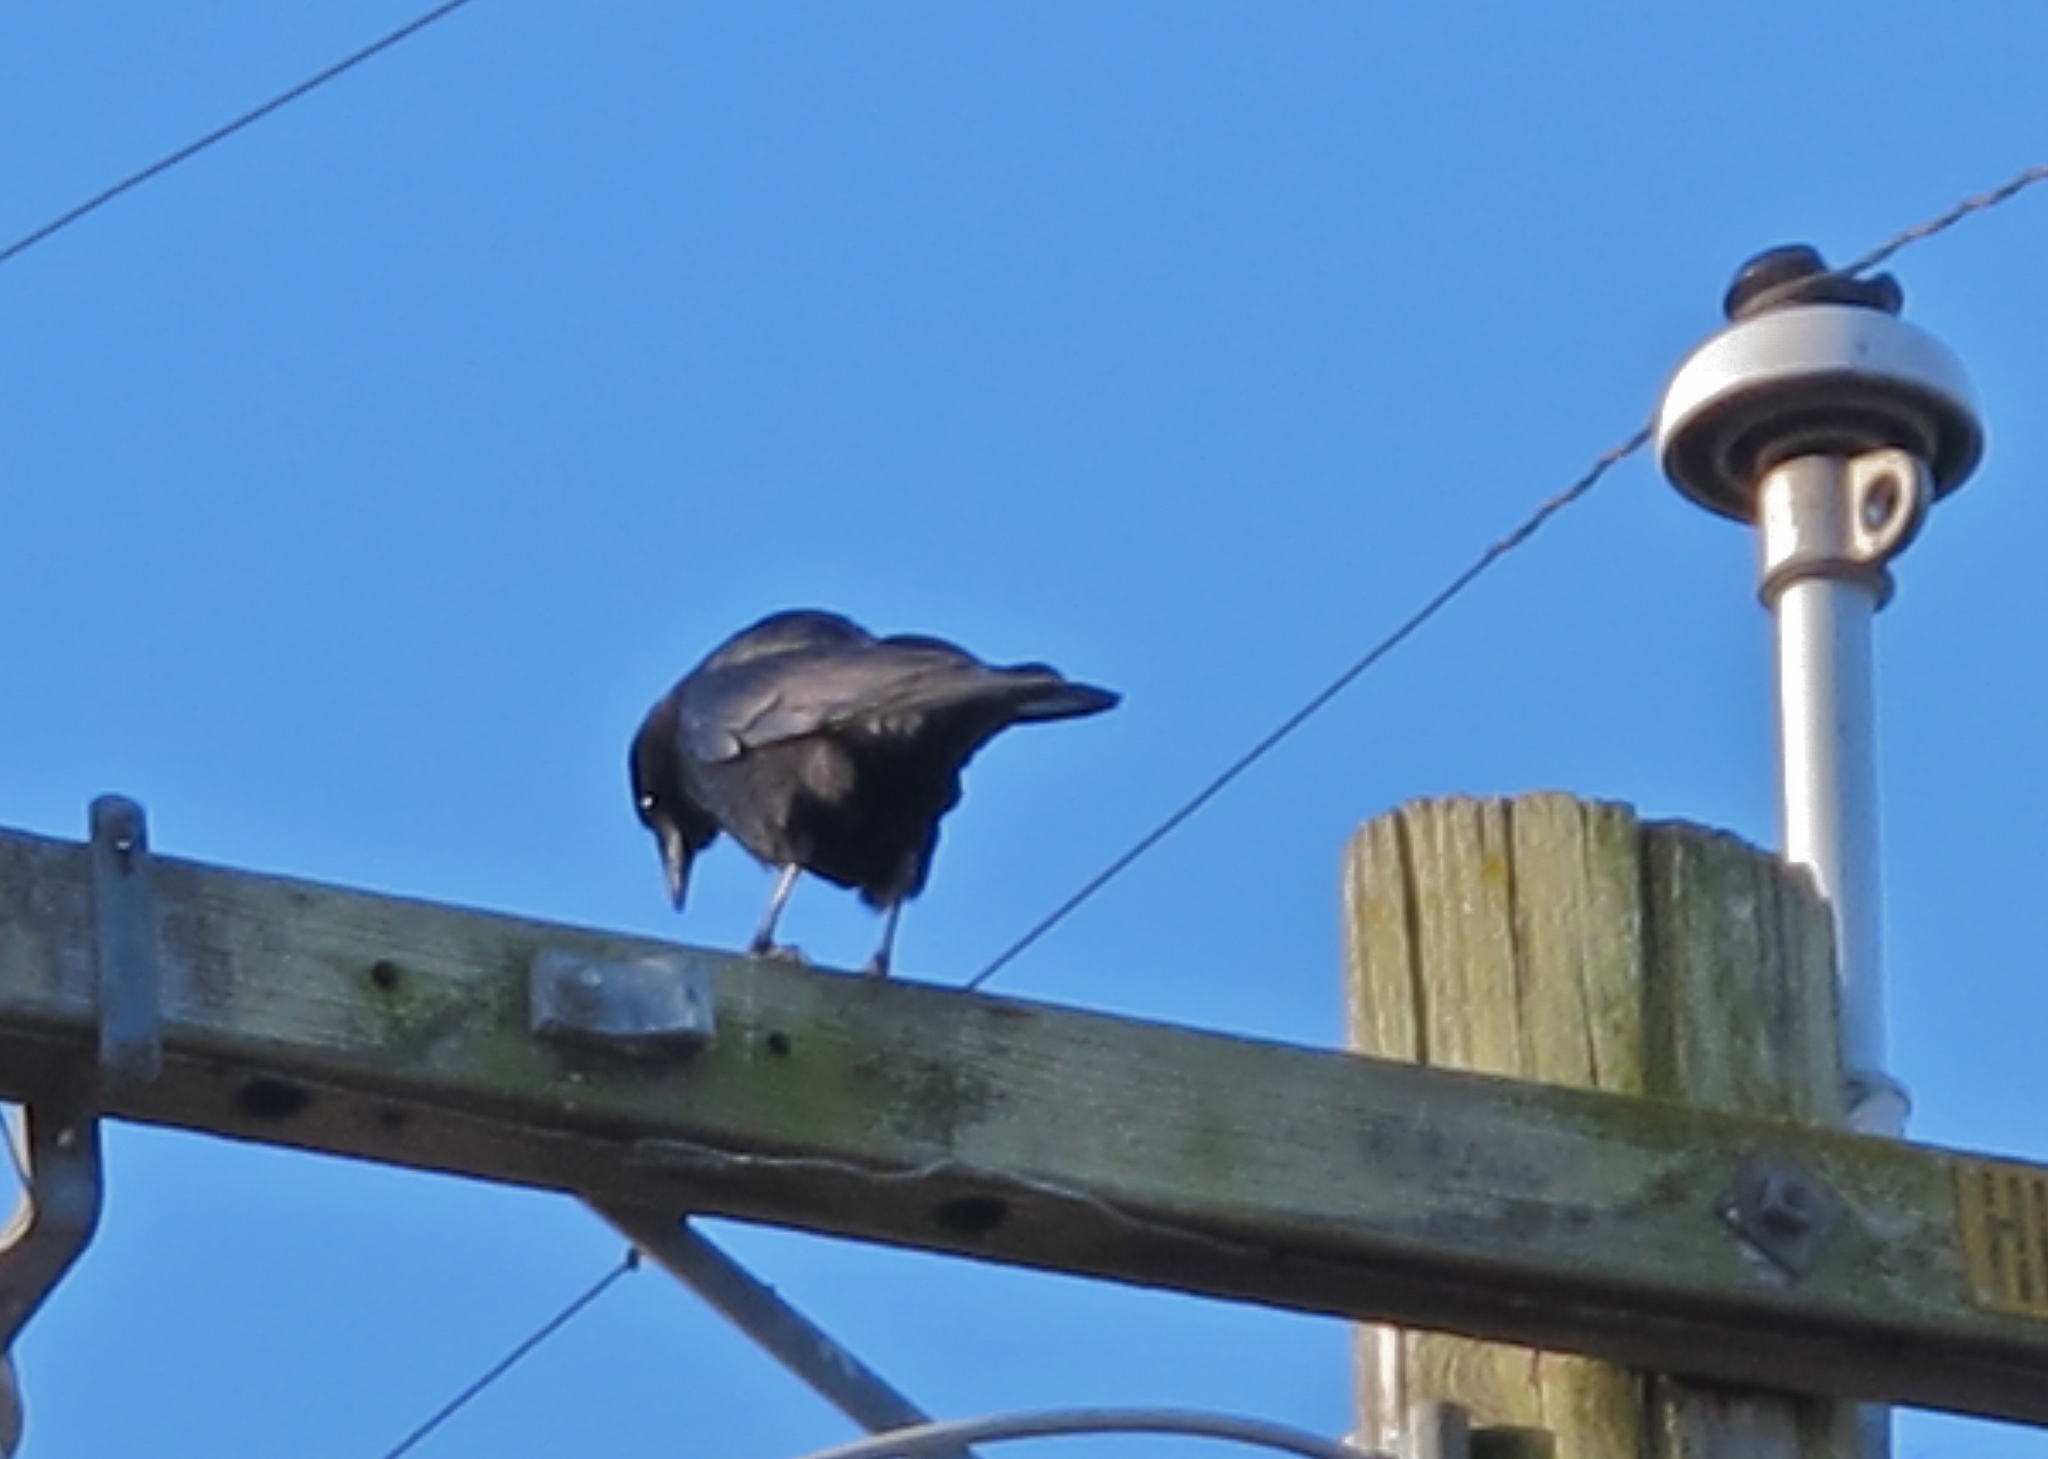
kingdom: Animalia
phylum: Chordata
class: Aves
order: Passeriformes
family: Corvidae
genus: Corvus
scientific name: Corvus brachyrhynchos
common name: American crow
